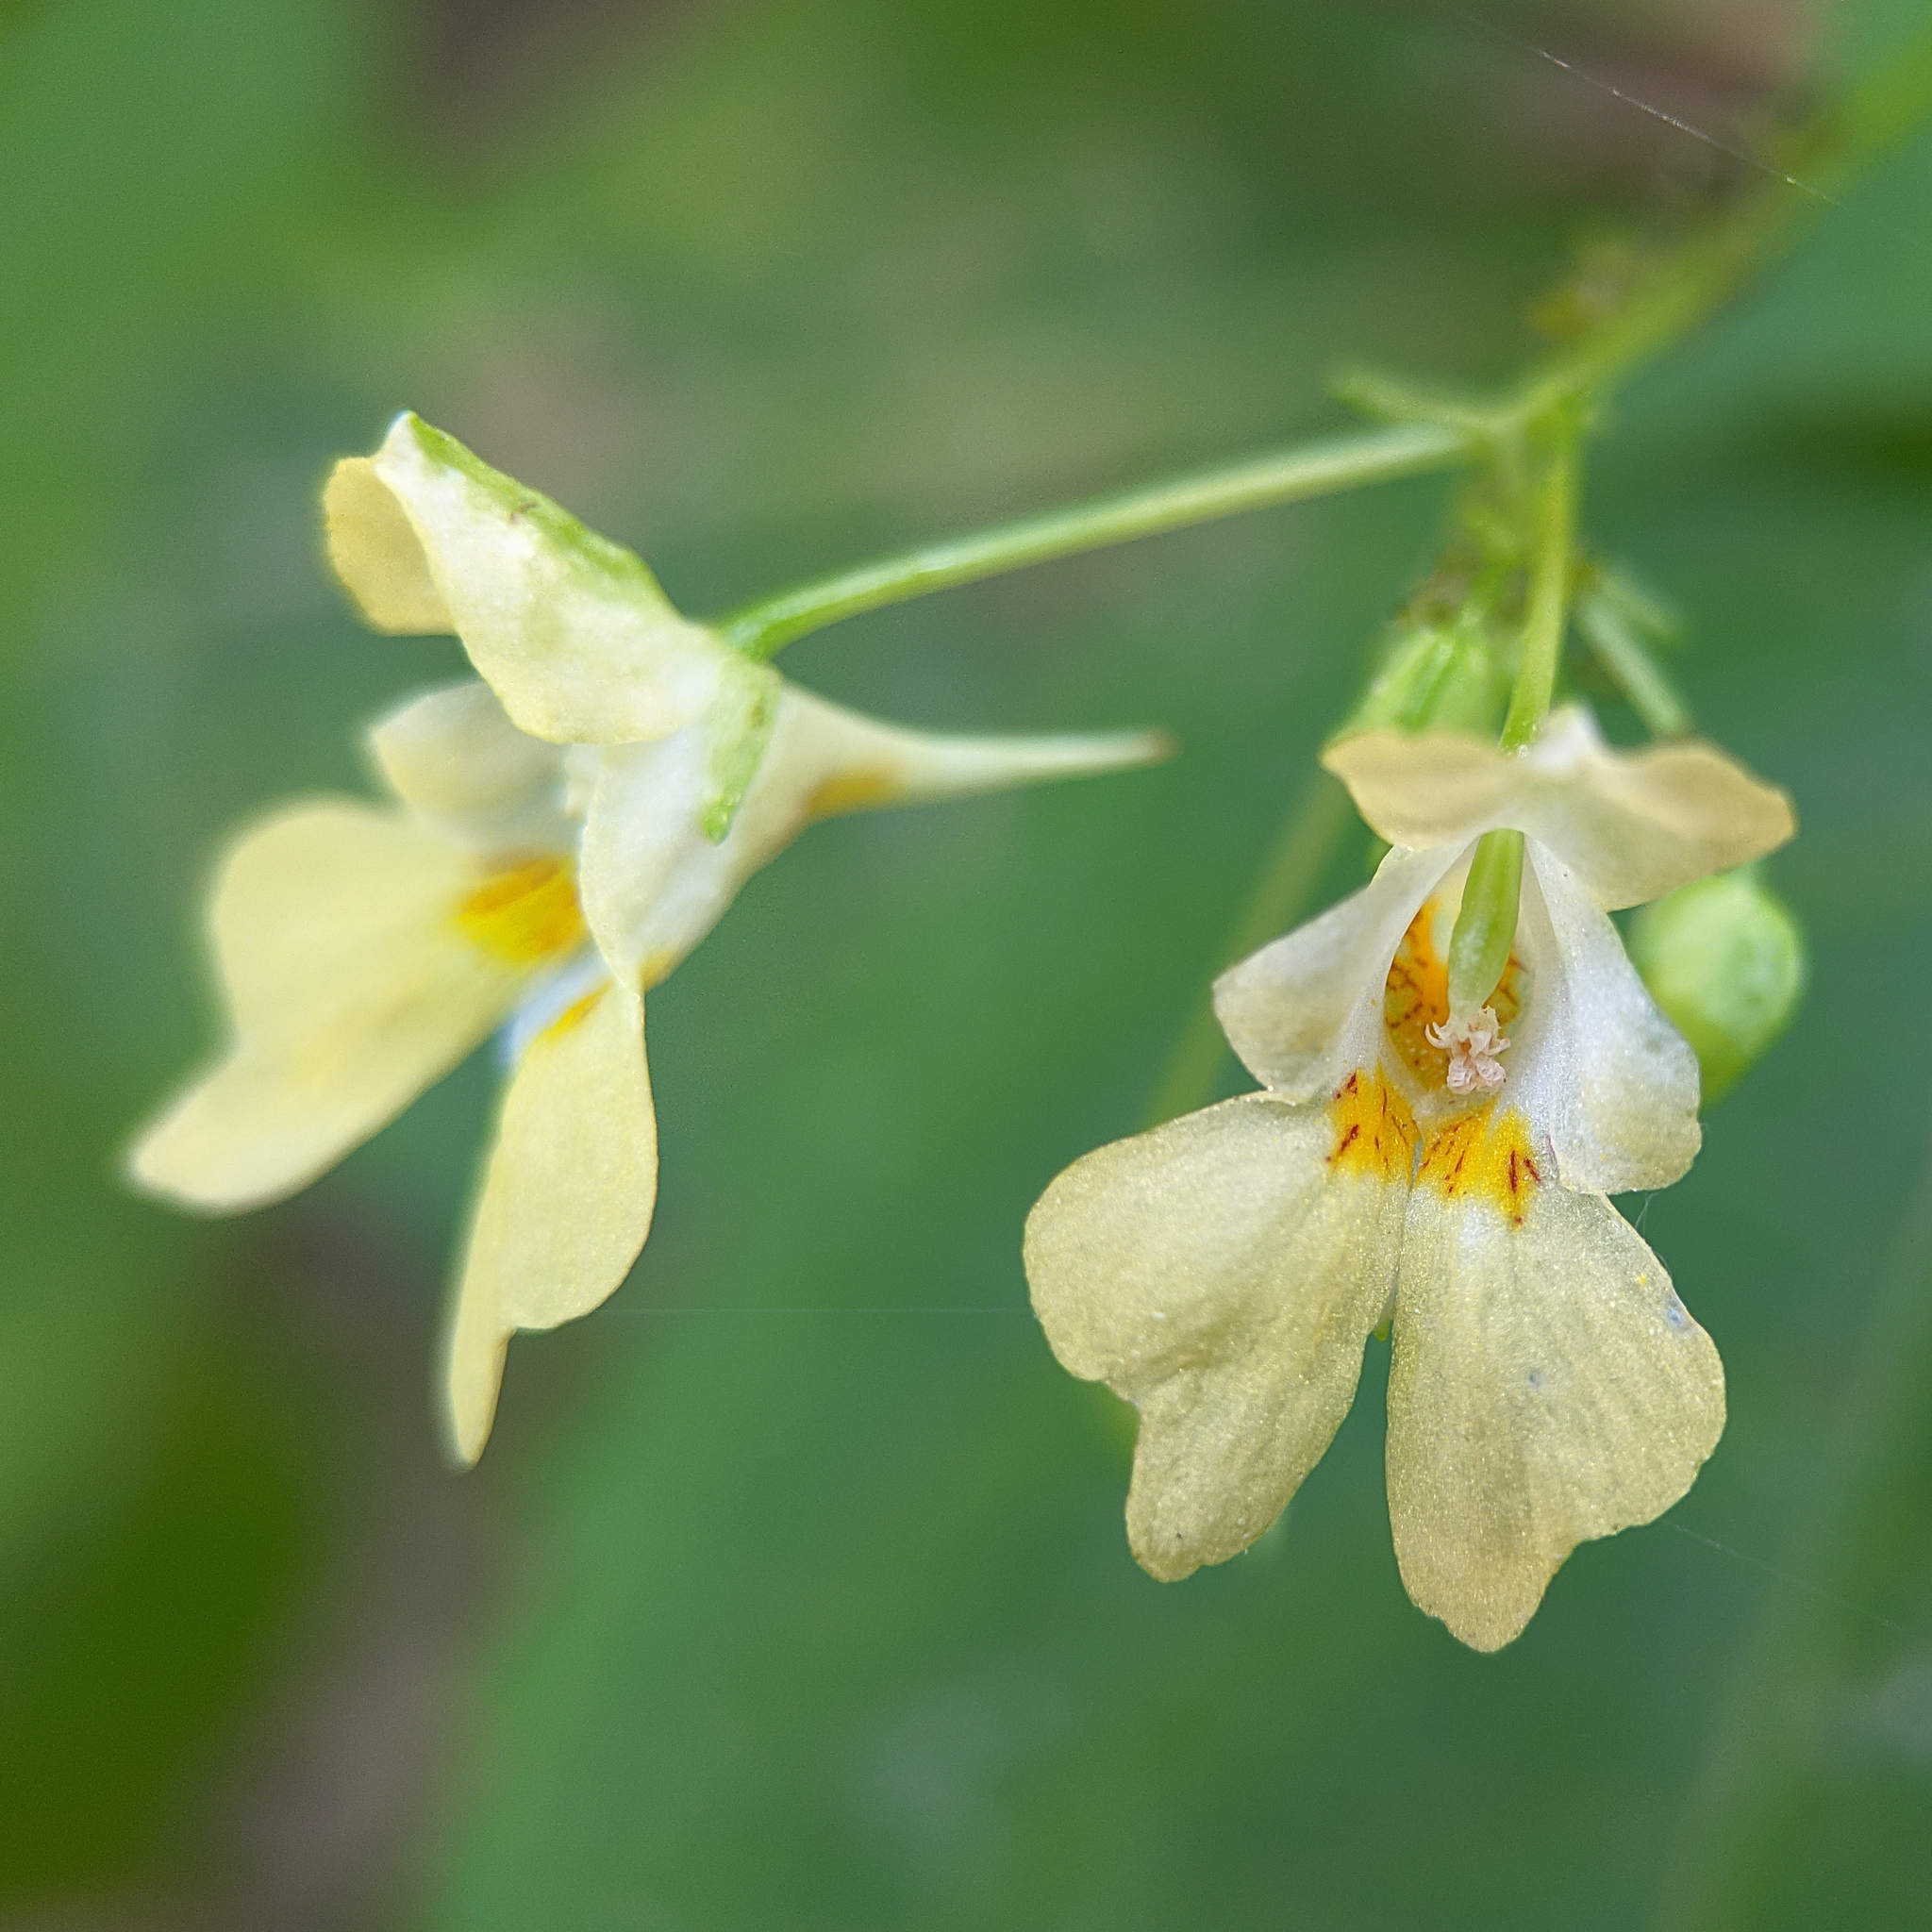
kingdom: Plantae
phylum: Tracheophyta
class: Magnoliopsida
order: Ericales
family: Balsaminaceae
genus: Impatiens
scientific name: Impatiens parviflora
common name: Small balsam
